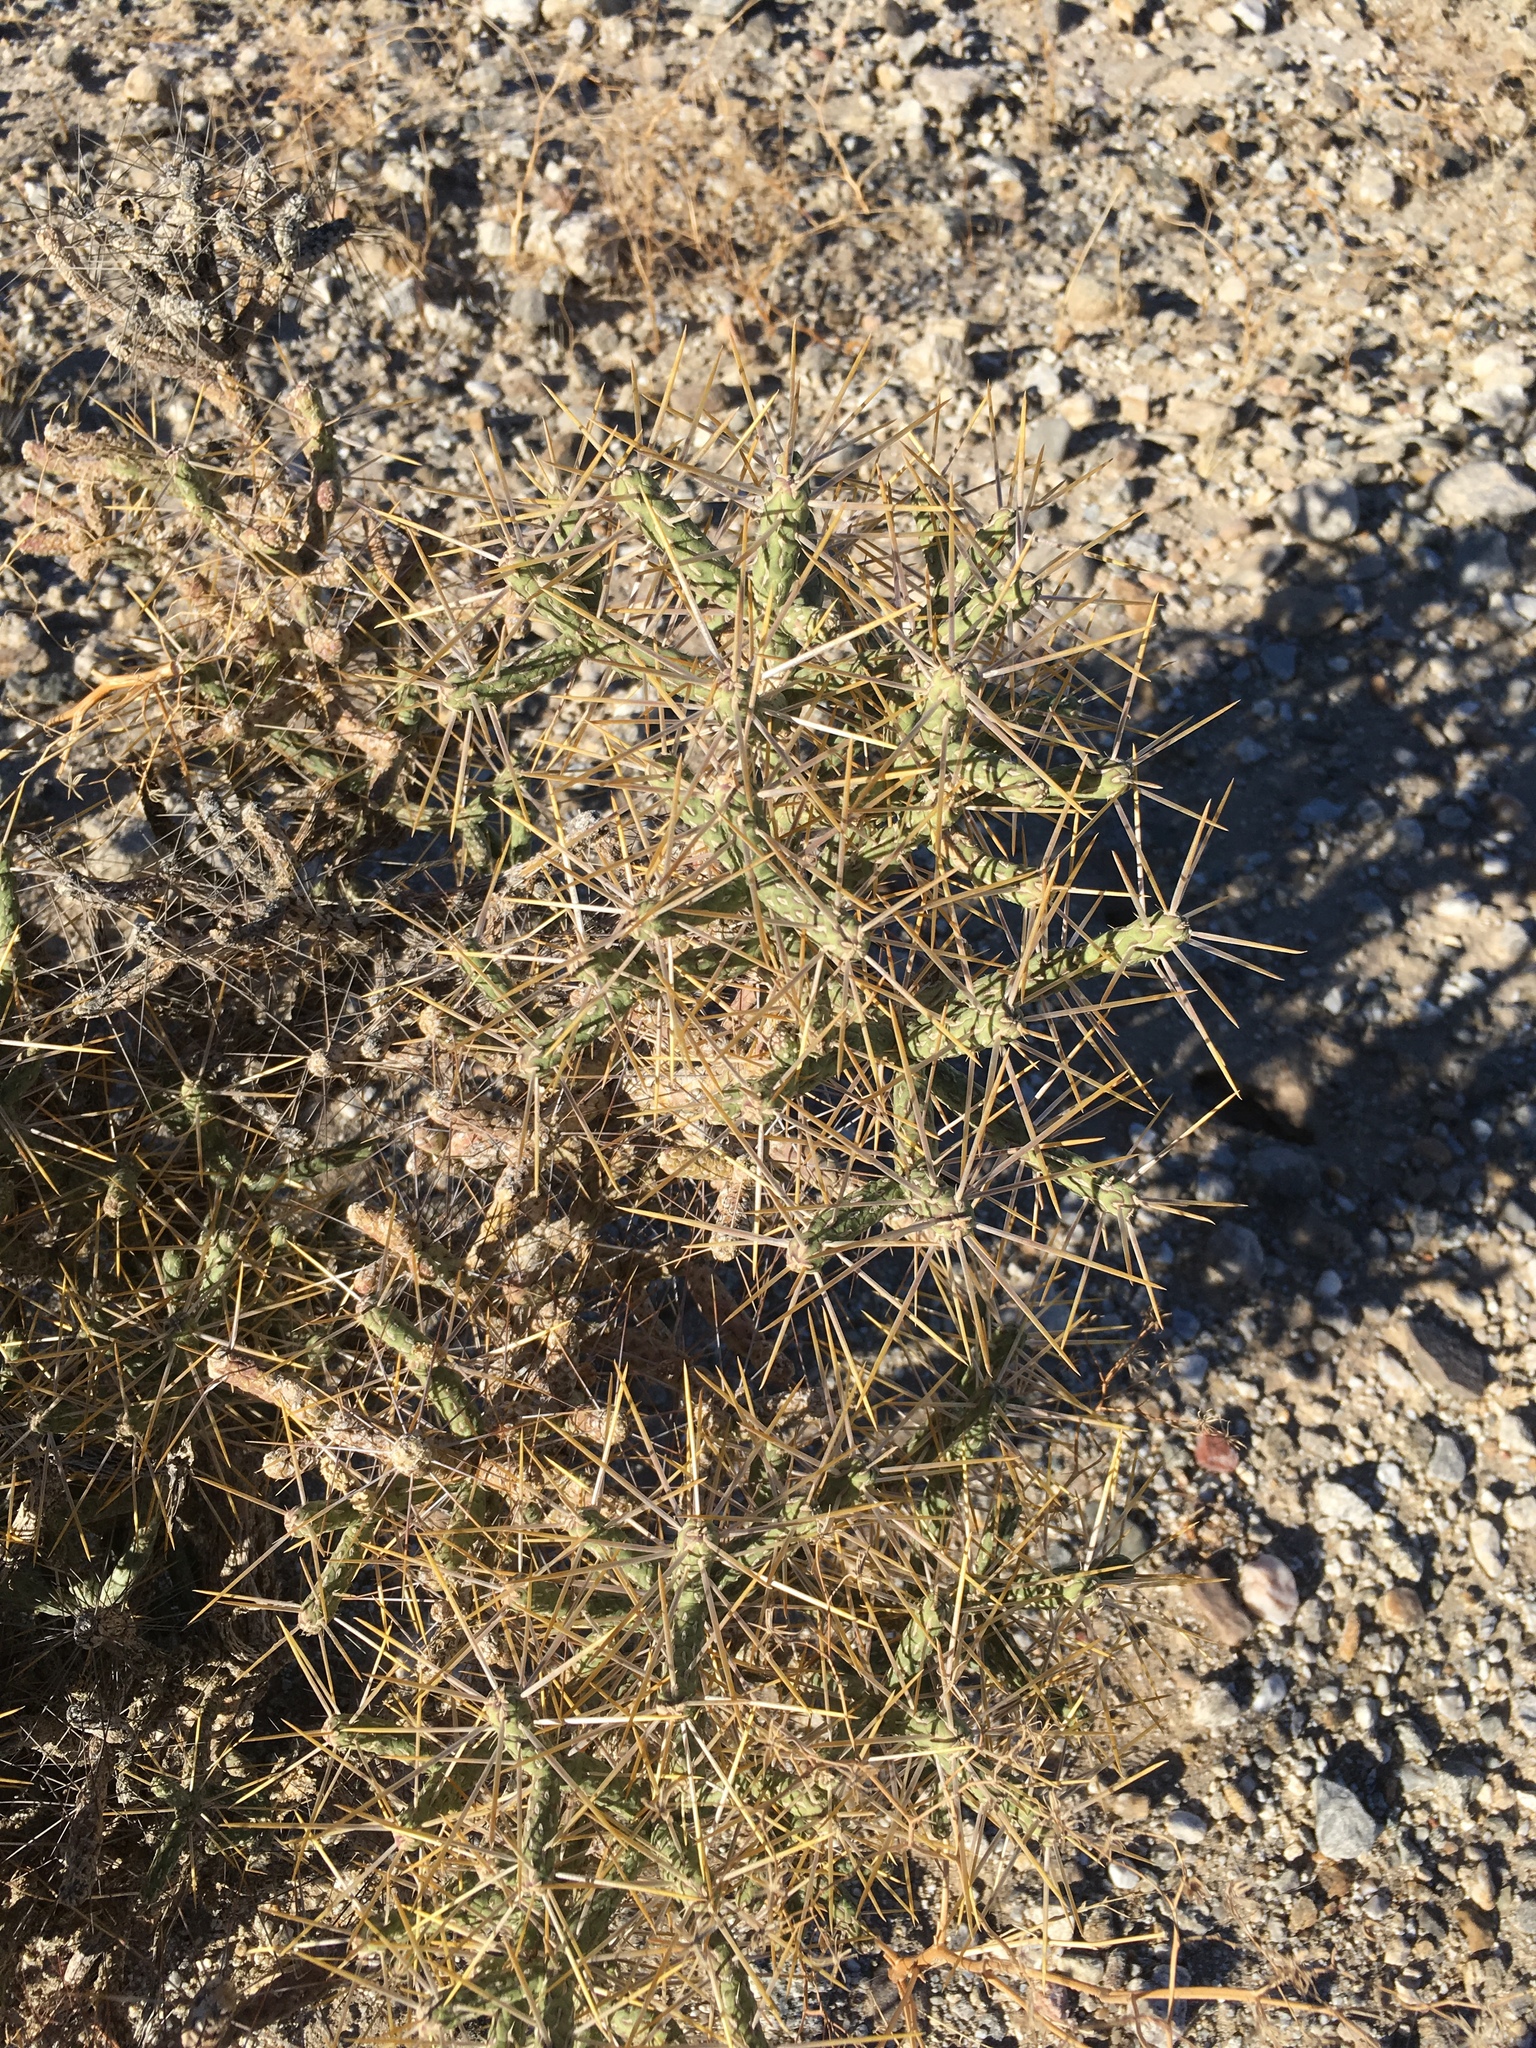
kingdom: Plantae
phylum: Tracheophyta
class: Magnoliopsida
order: Caryophyllales
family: Cactaceae
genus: Cylindropuntia
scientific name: Cylindropuntia ramosissima
